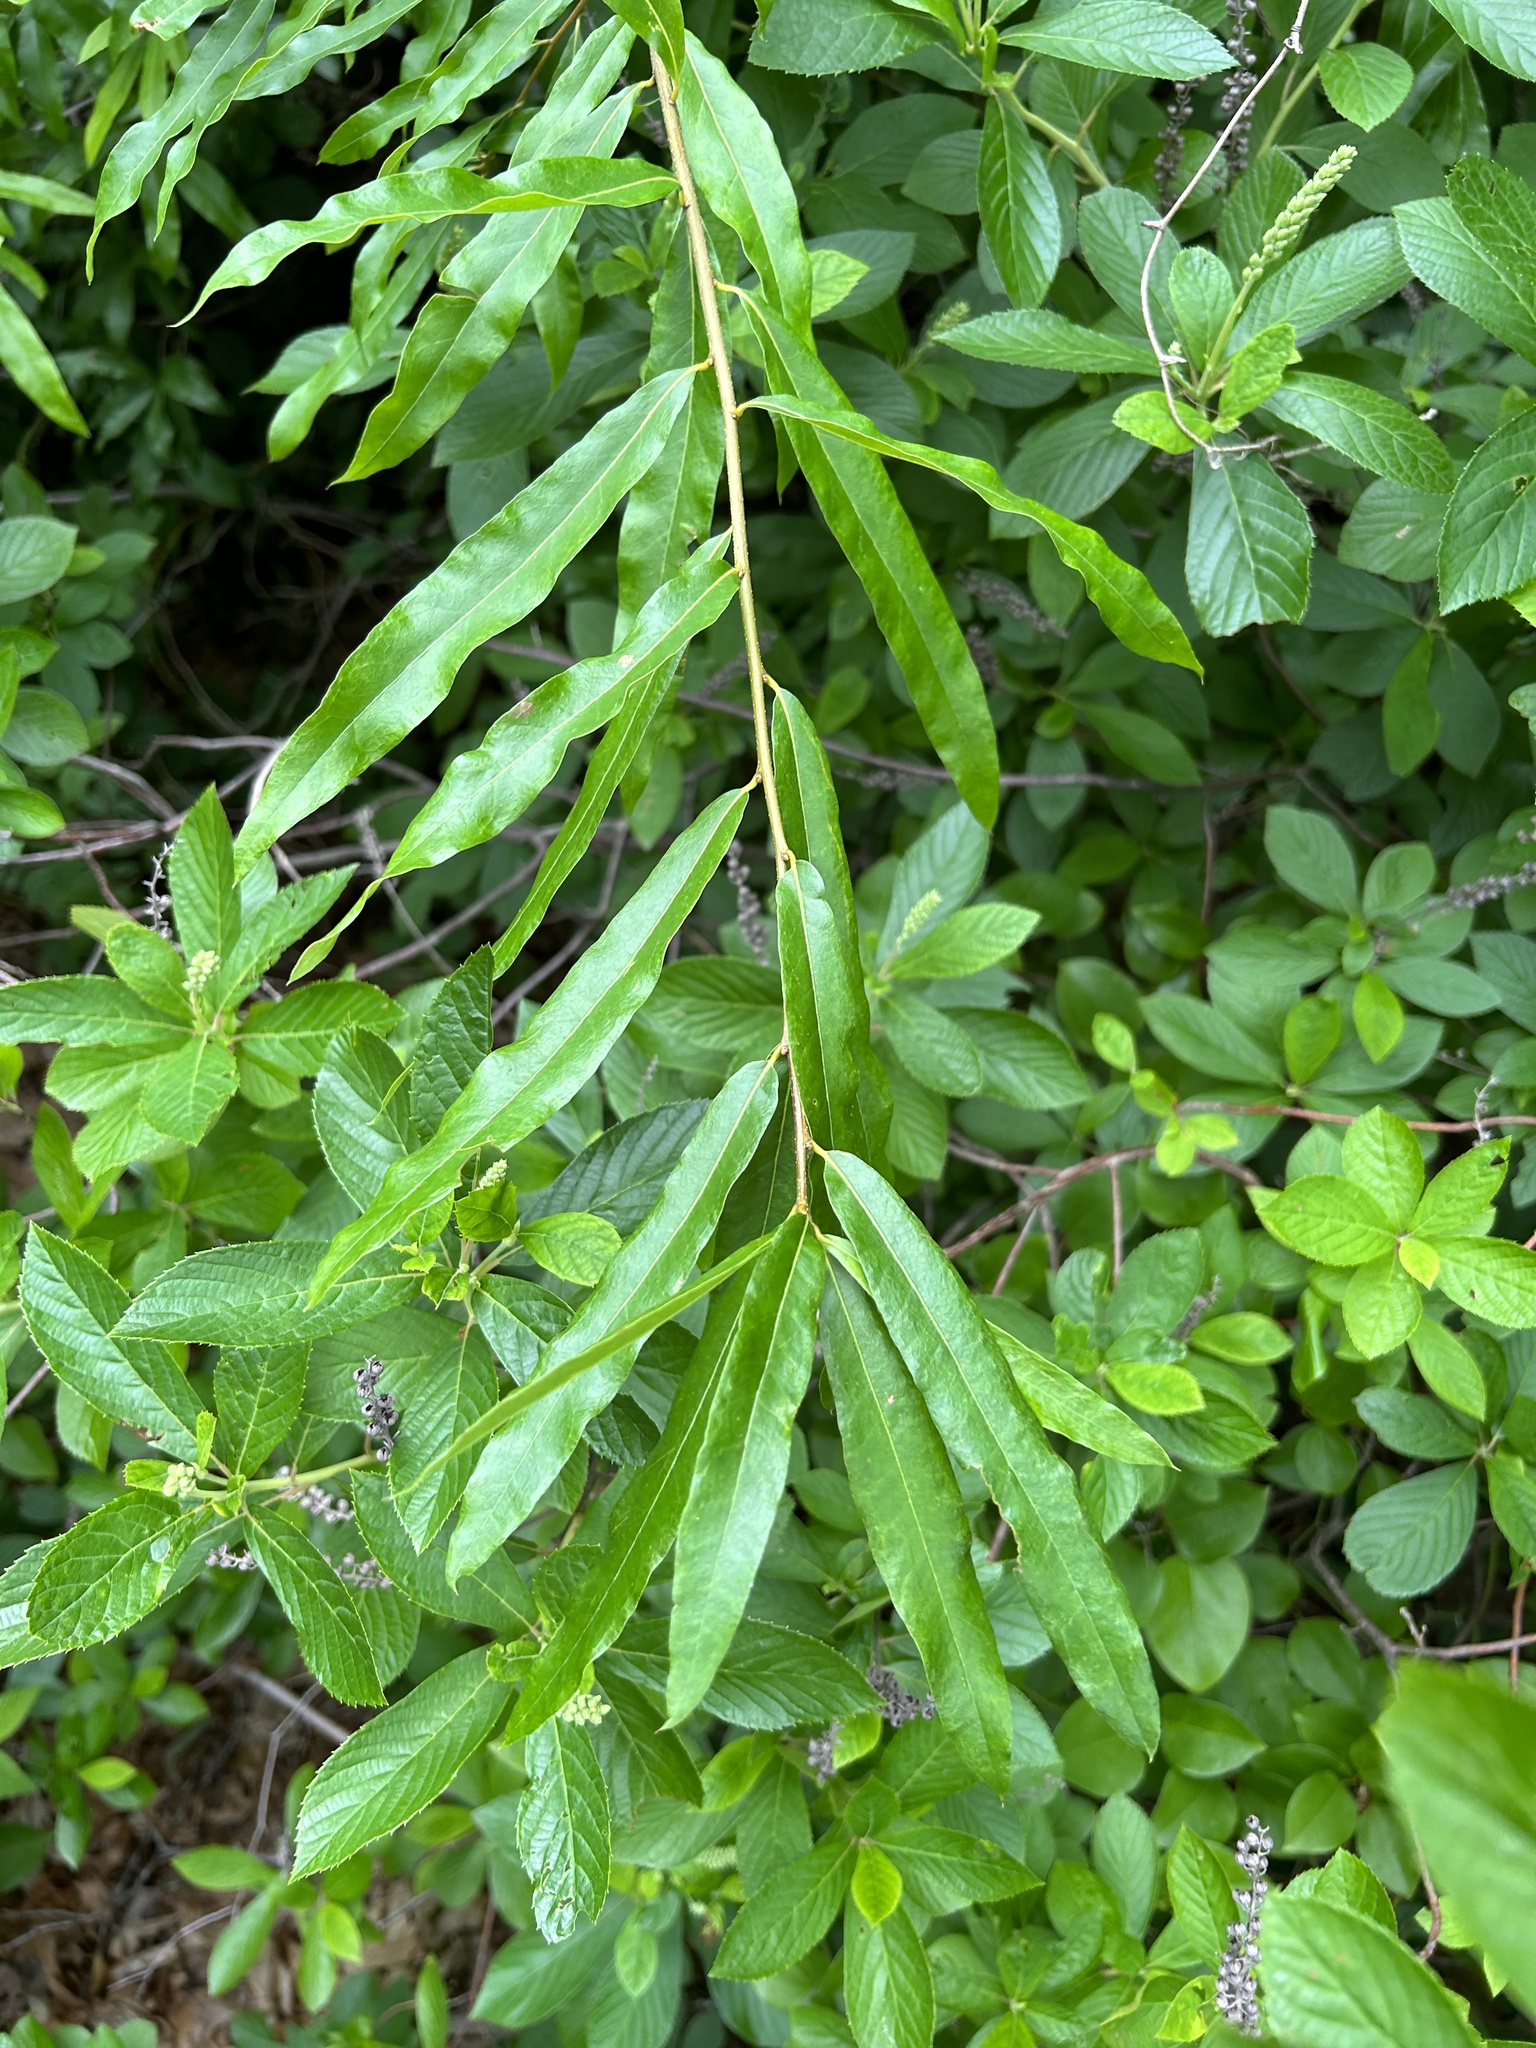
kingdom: Plantae
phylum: Tracheophyta
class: Magnoliopsida
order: Fagales
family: Fagaceae
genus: Quercus
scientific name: Quercus phellos
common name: Willow oak
